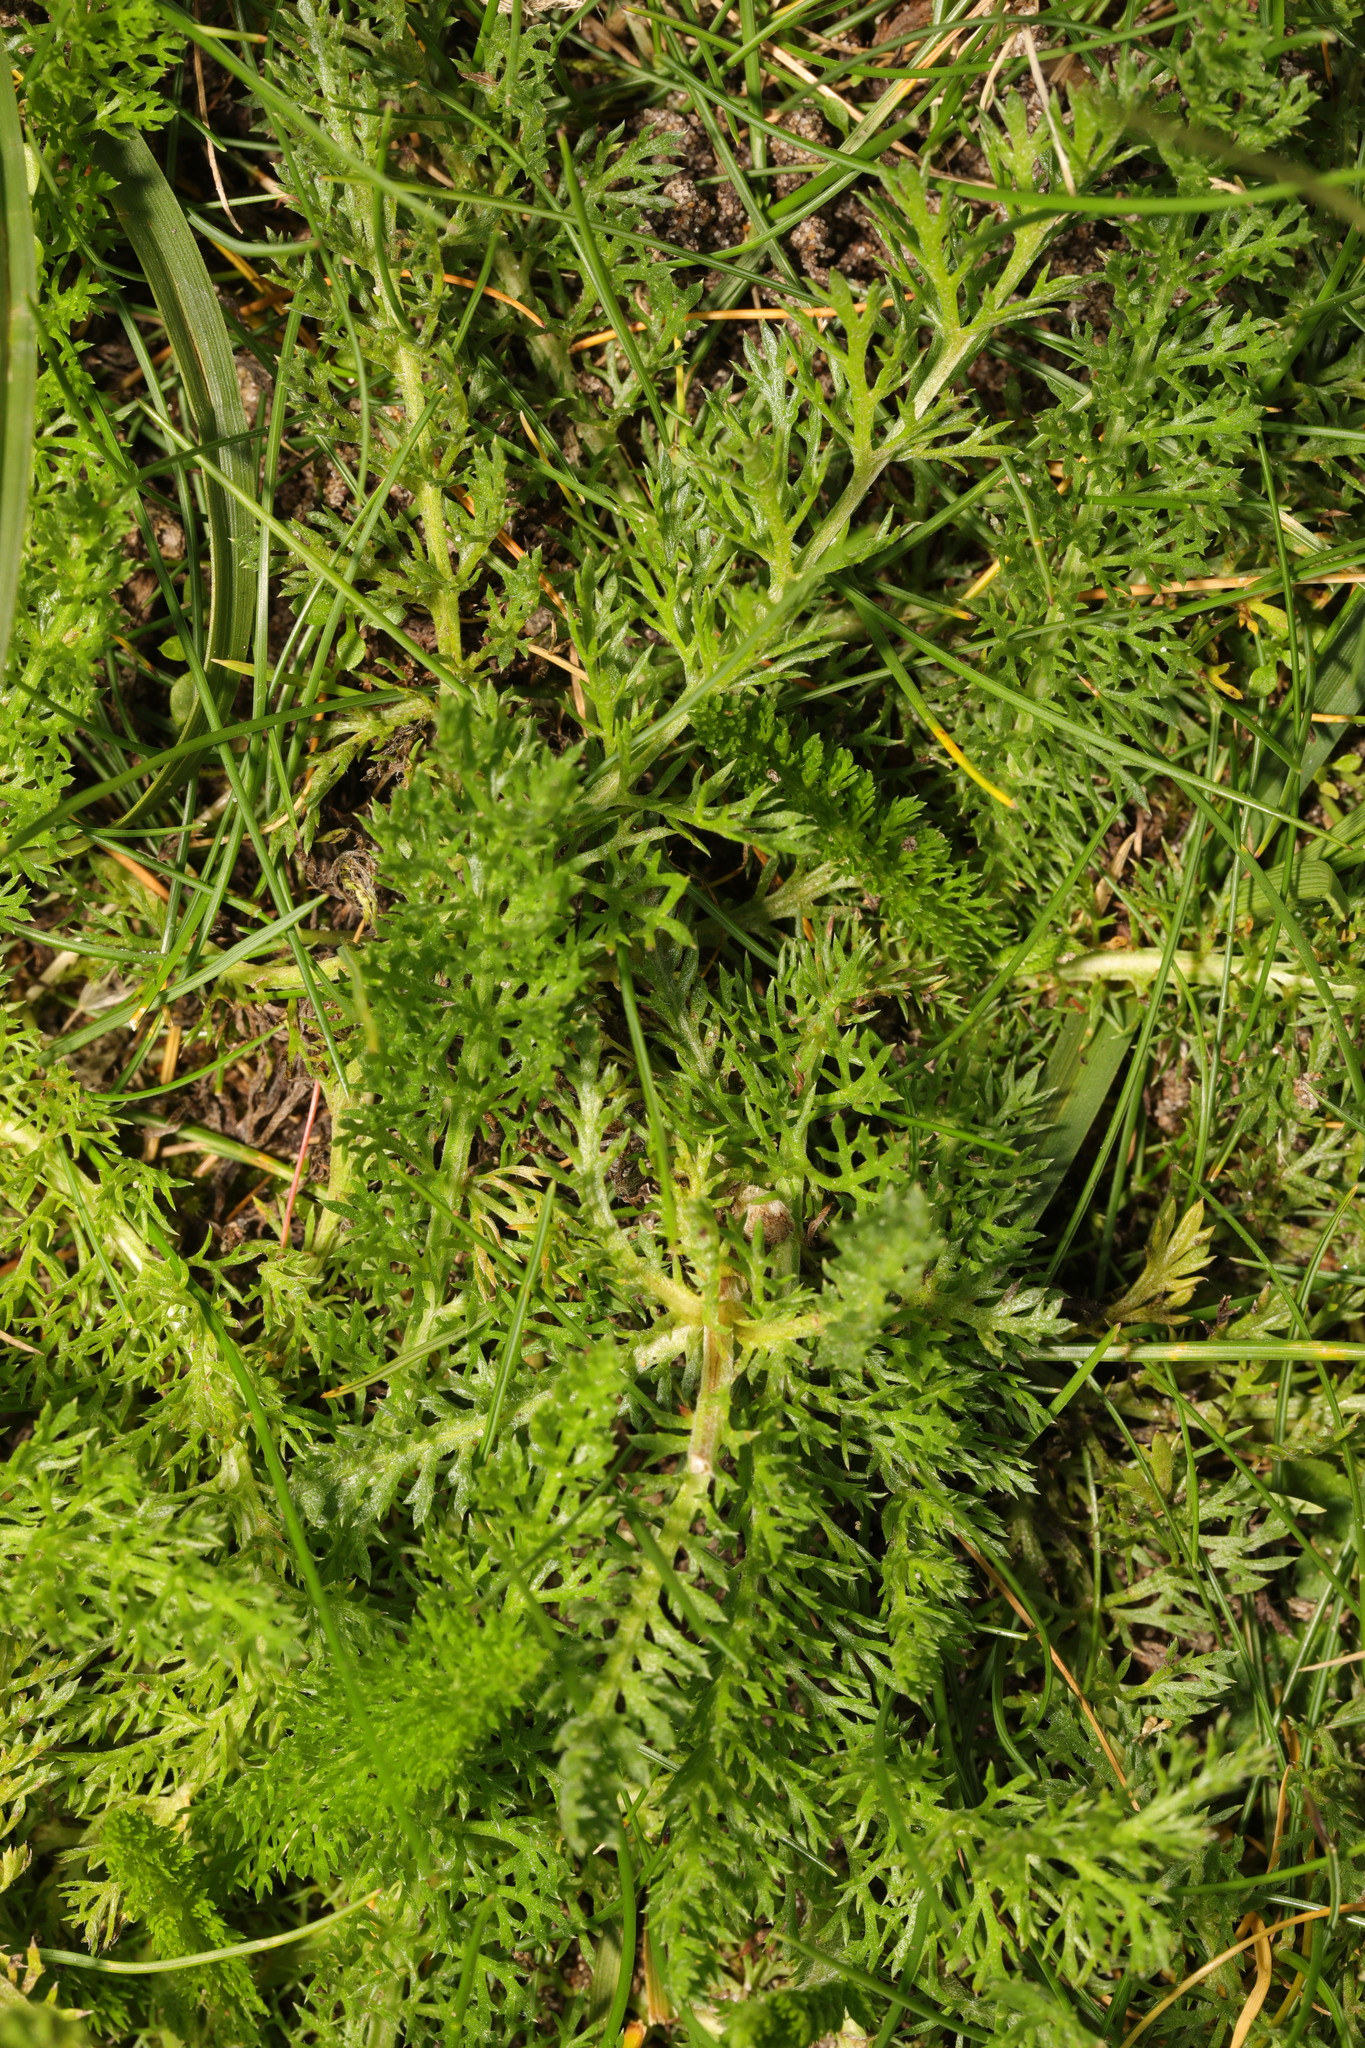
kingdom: Plantae
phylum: Tracheophyta
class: Magnoliopsida
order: Asterales
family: Asteraceae
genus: Achillea
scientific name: Achillea millefolium
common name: Yarrow
